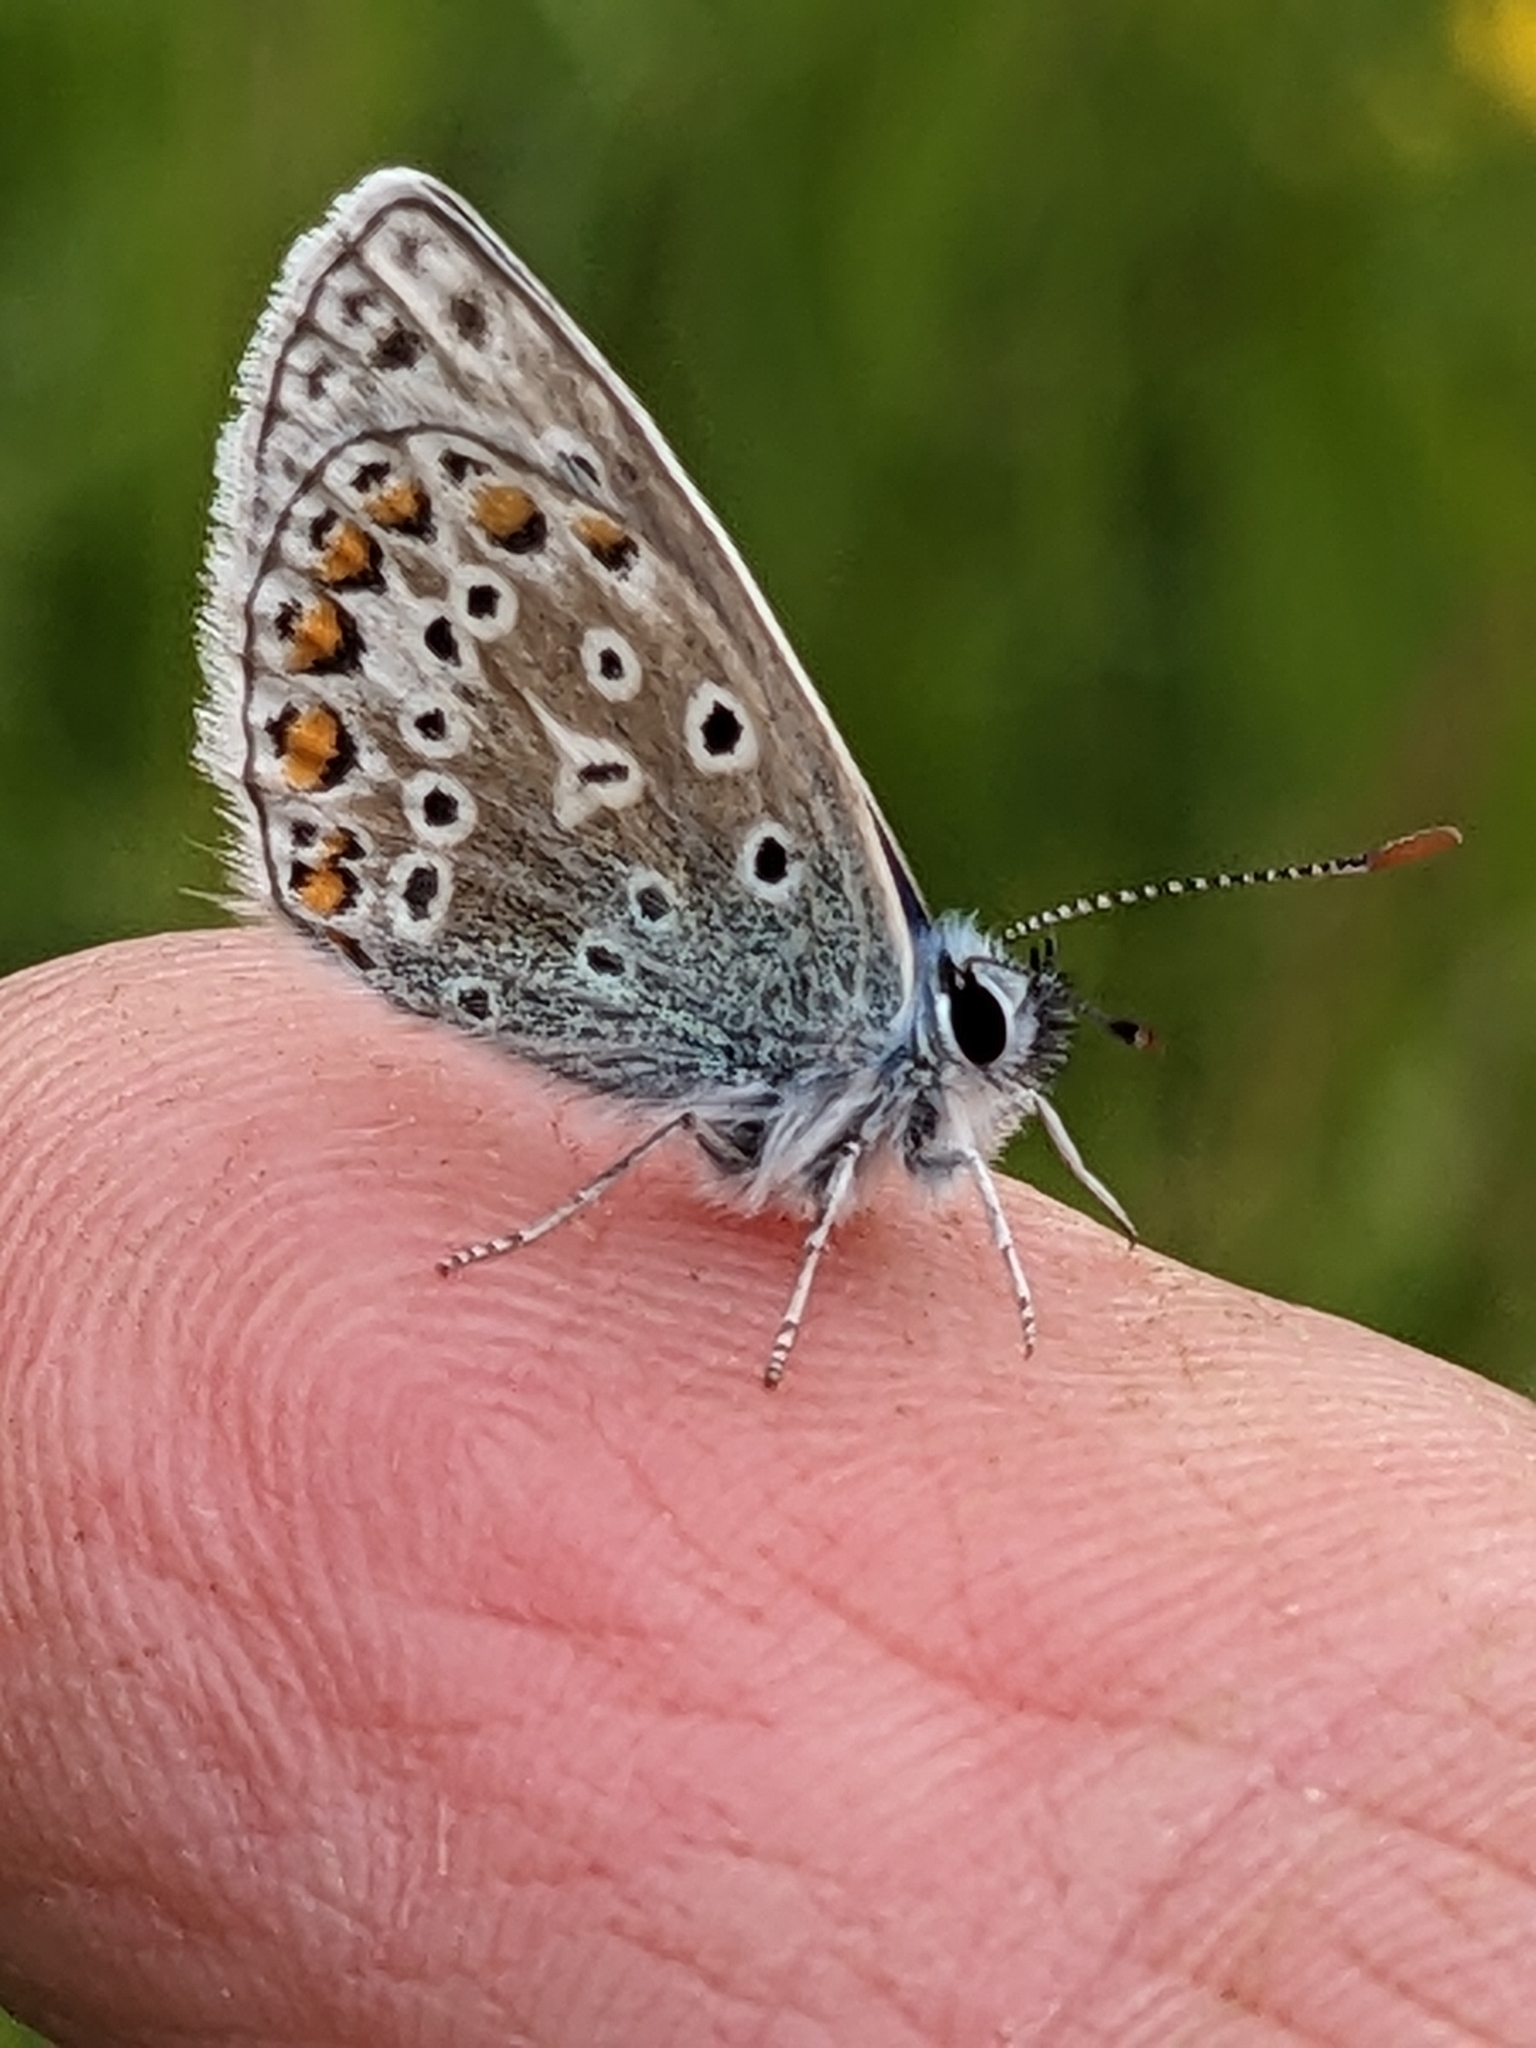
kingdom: Animalia
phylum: Arthropoda
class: Insecta
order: Lepidoptera
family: Lycaenidae
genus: Polyommatus
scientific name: Polyommatus icarus
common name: Common blue
